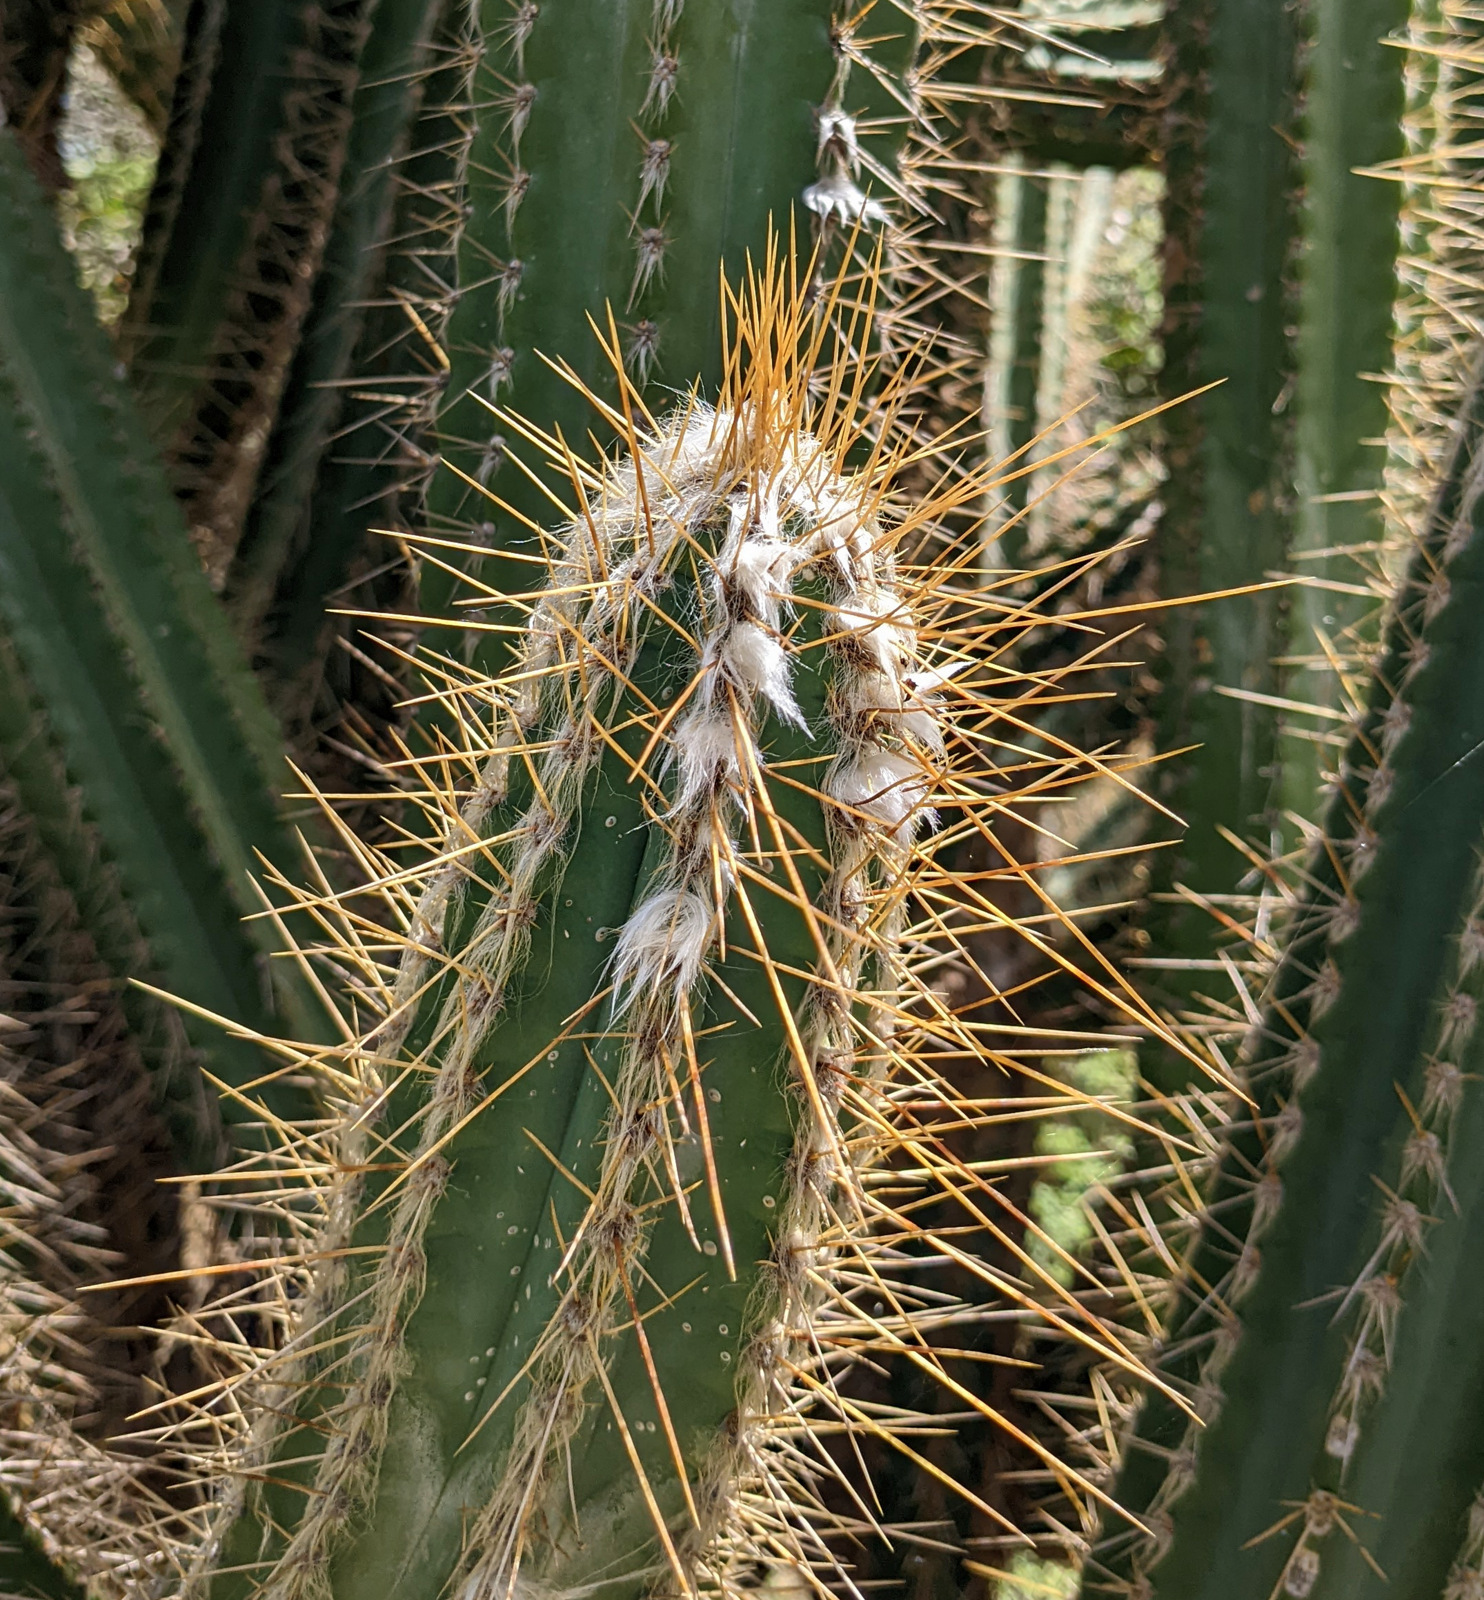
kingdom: Plantae
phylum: Tracheophyta
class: Magnoliopsida
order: Caryophyllales
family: Cactaceae
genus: Pilosocereus
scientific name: Pilosocereus armatus
